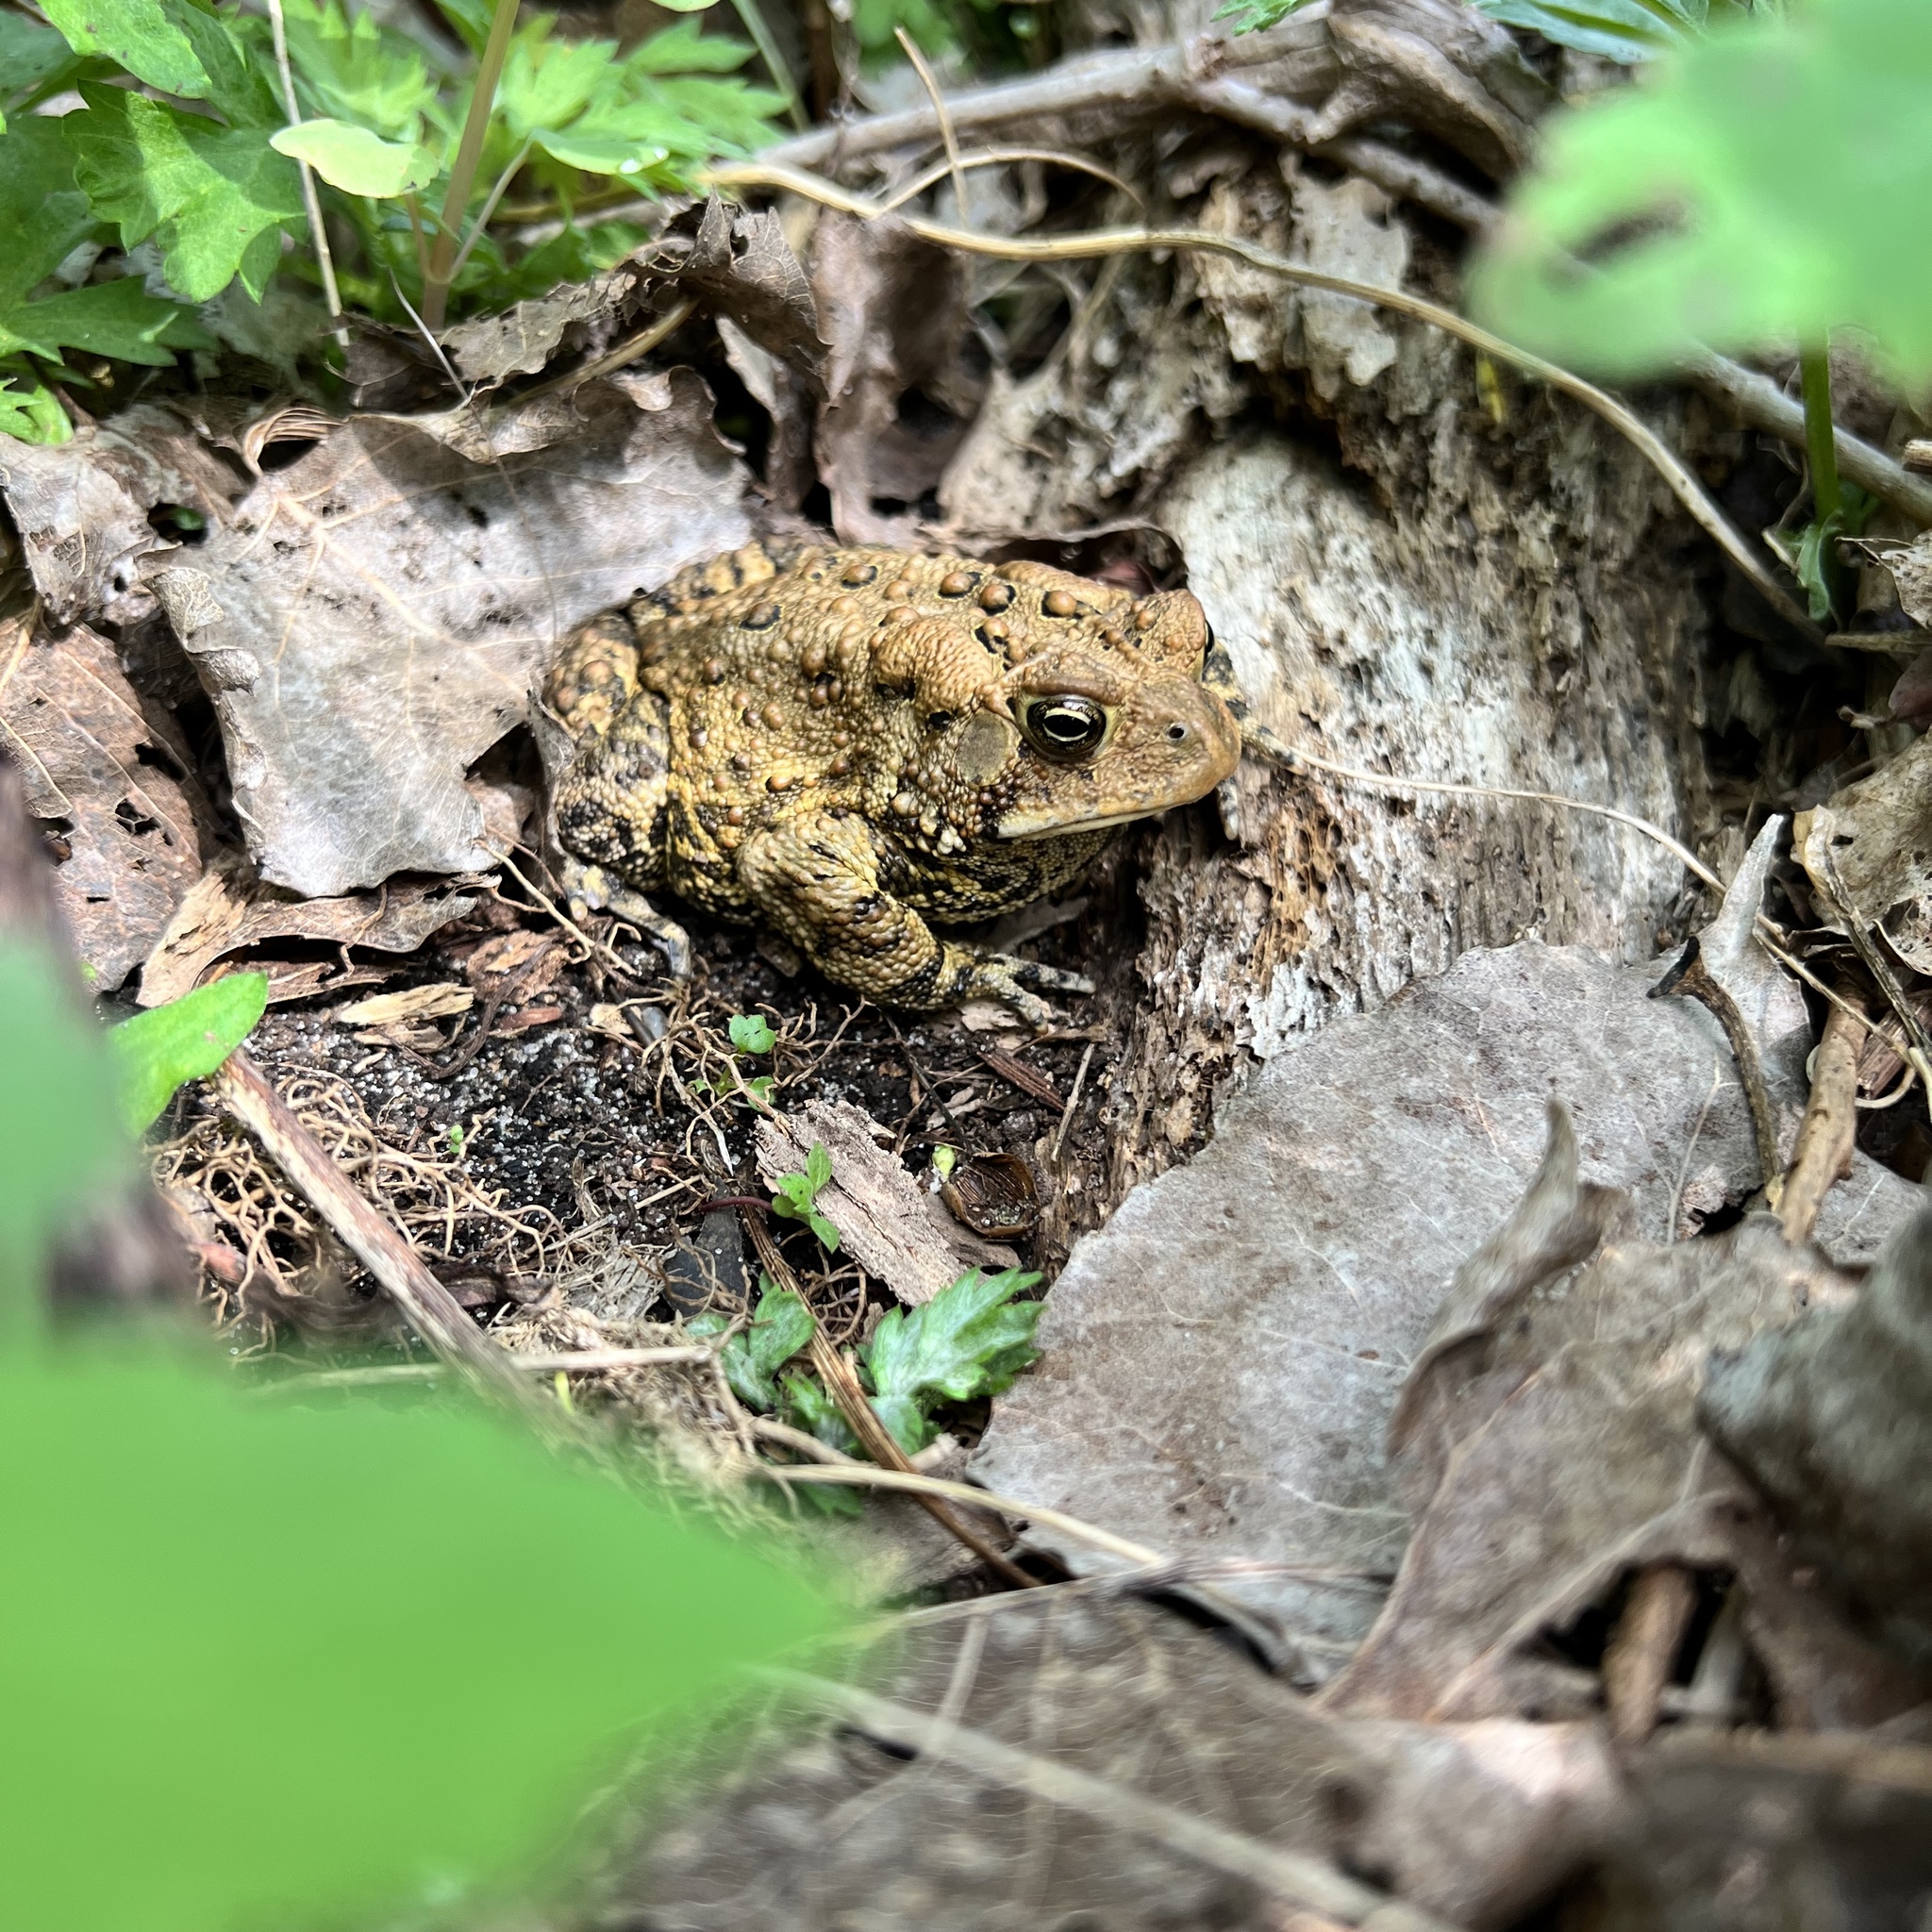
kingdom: Animalia
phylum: Chordata
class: Amphibia
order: Anura
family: Bufonidae
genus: Anaxyrus
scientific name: Anaxyrus americanus
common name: American toad
